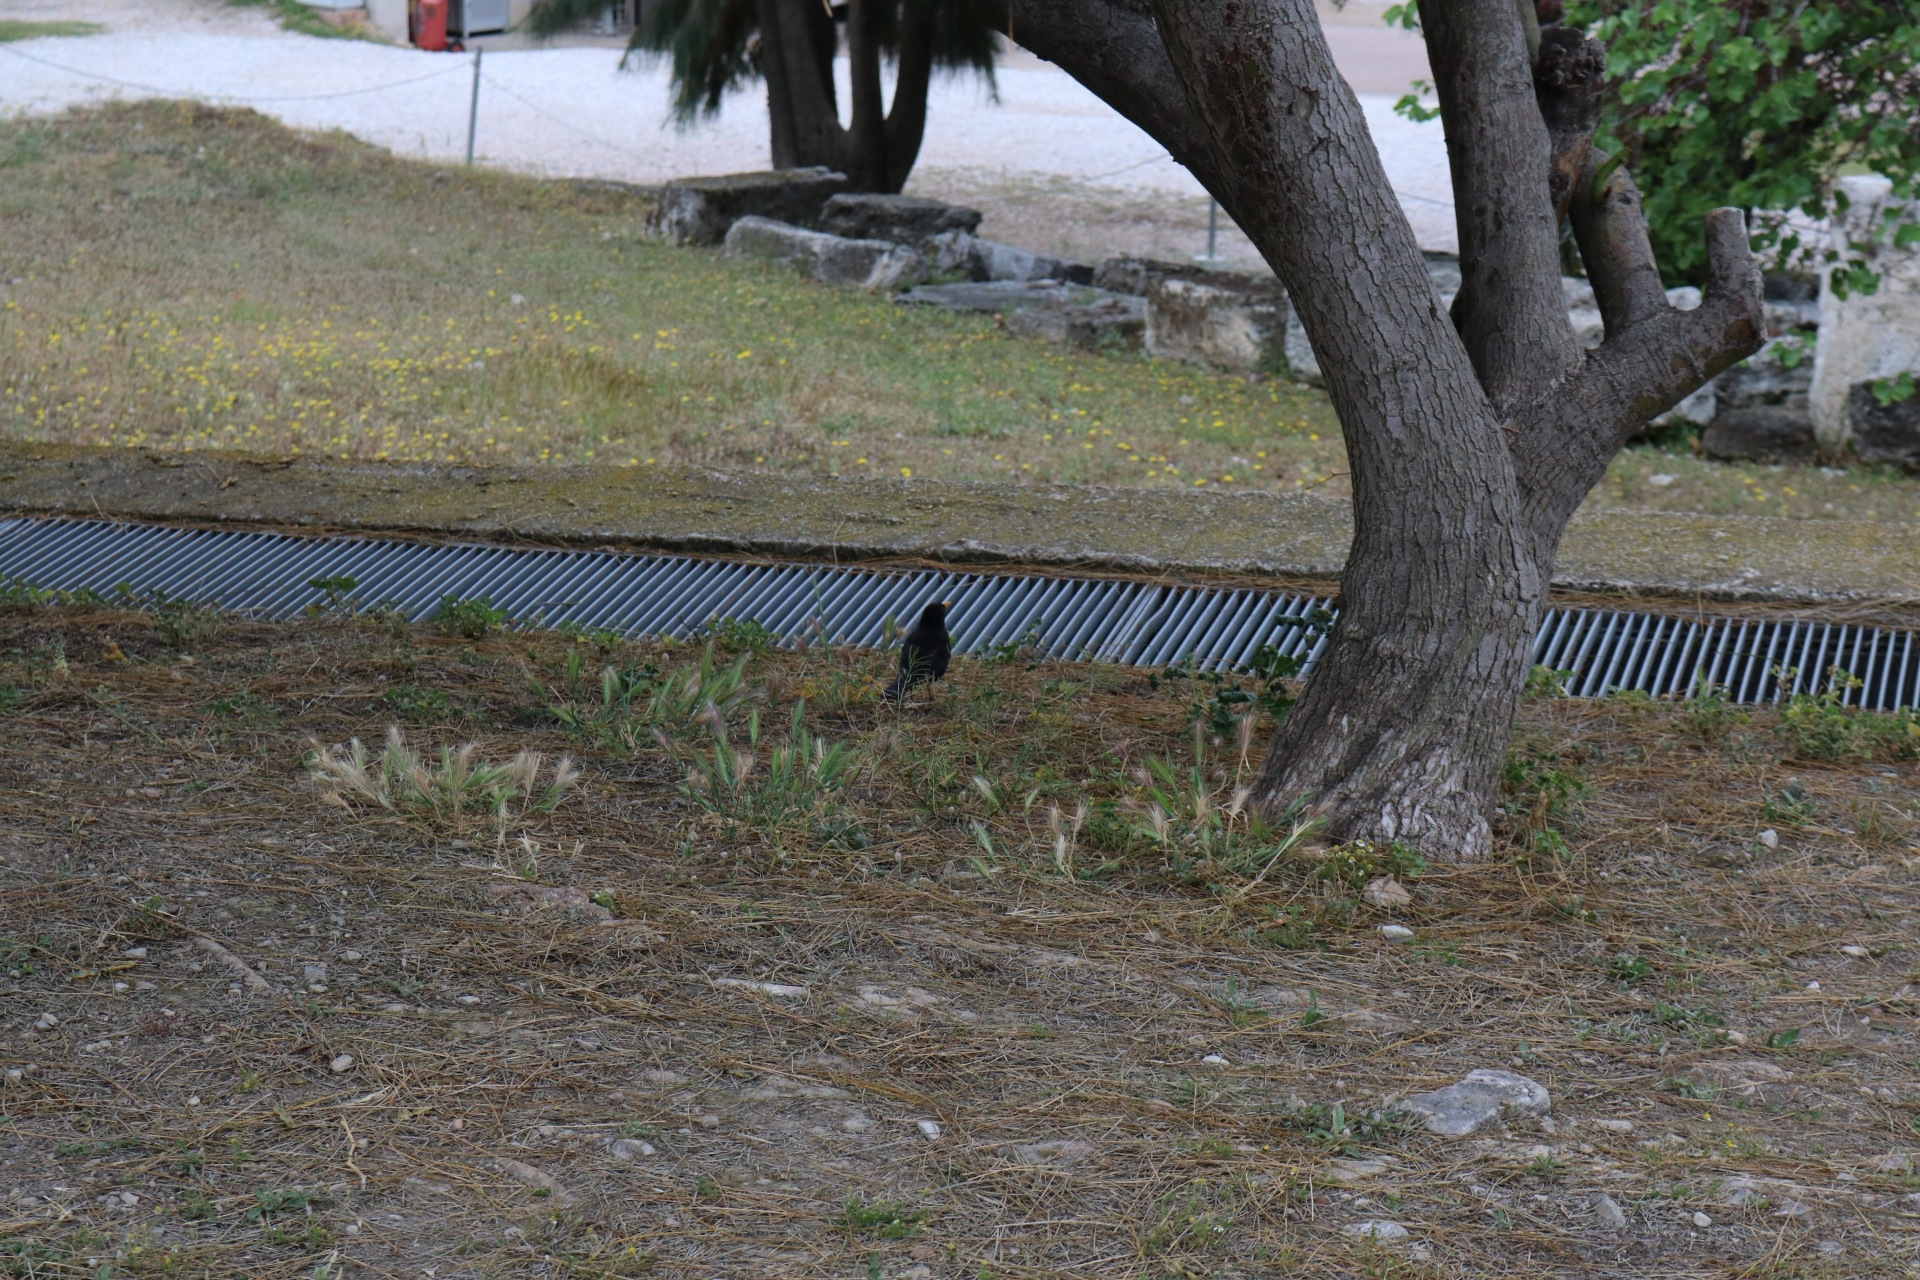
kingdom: Animalia
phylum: Chordata
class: Aves
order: Passeriformes
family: Turdidae
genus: Turdus
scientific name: Turdus merula
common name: Common blackbird
